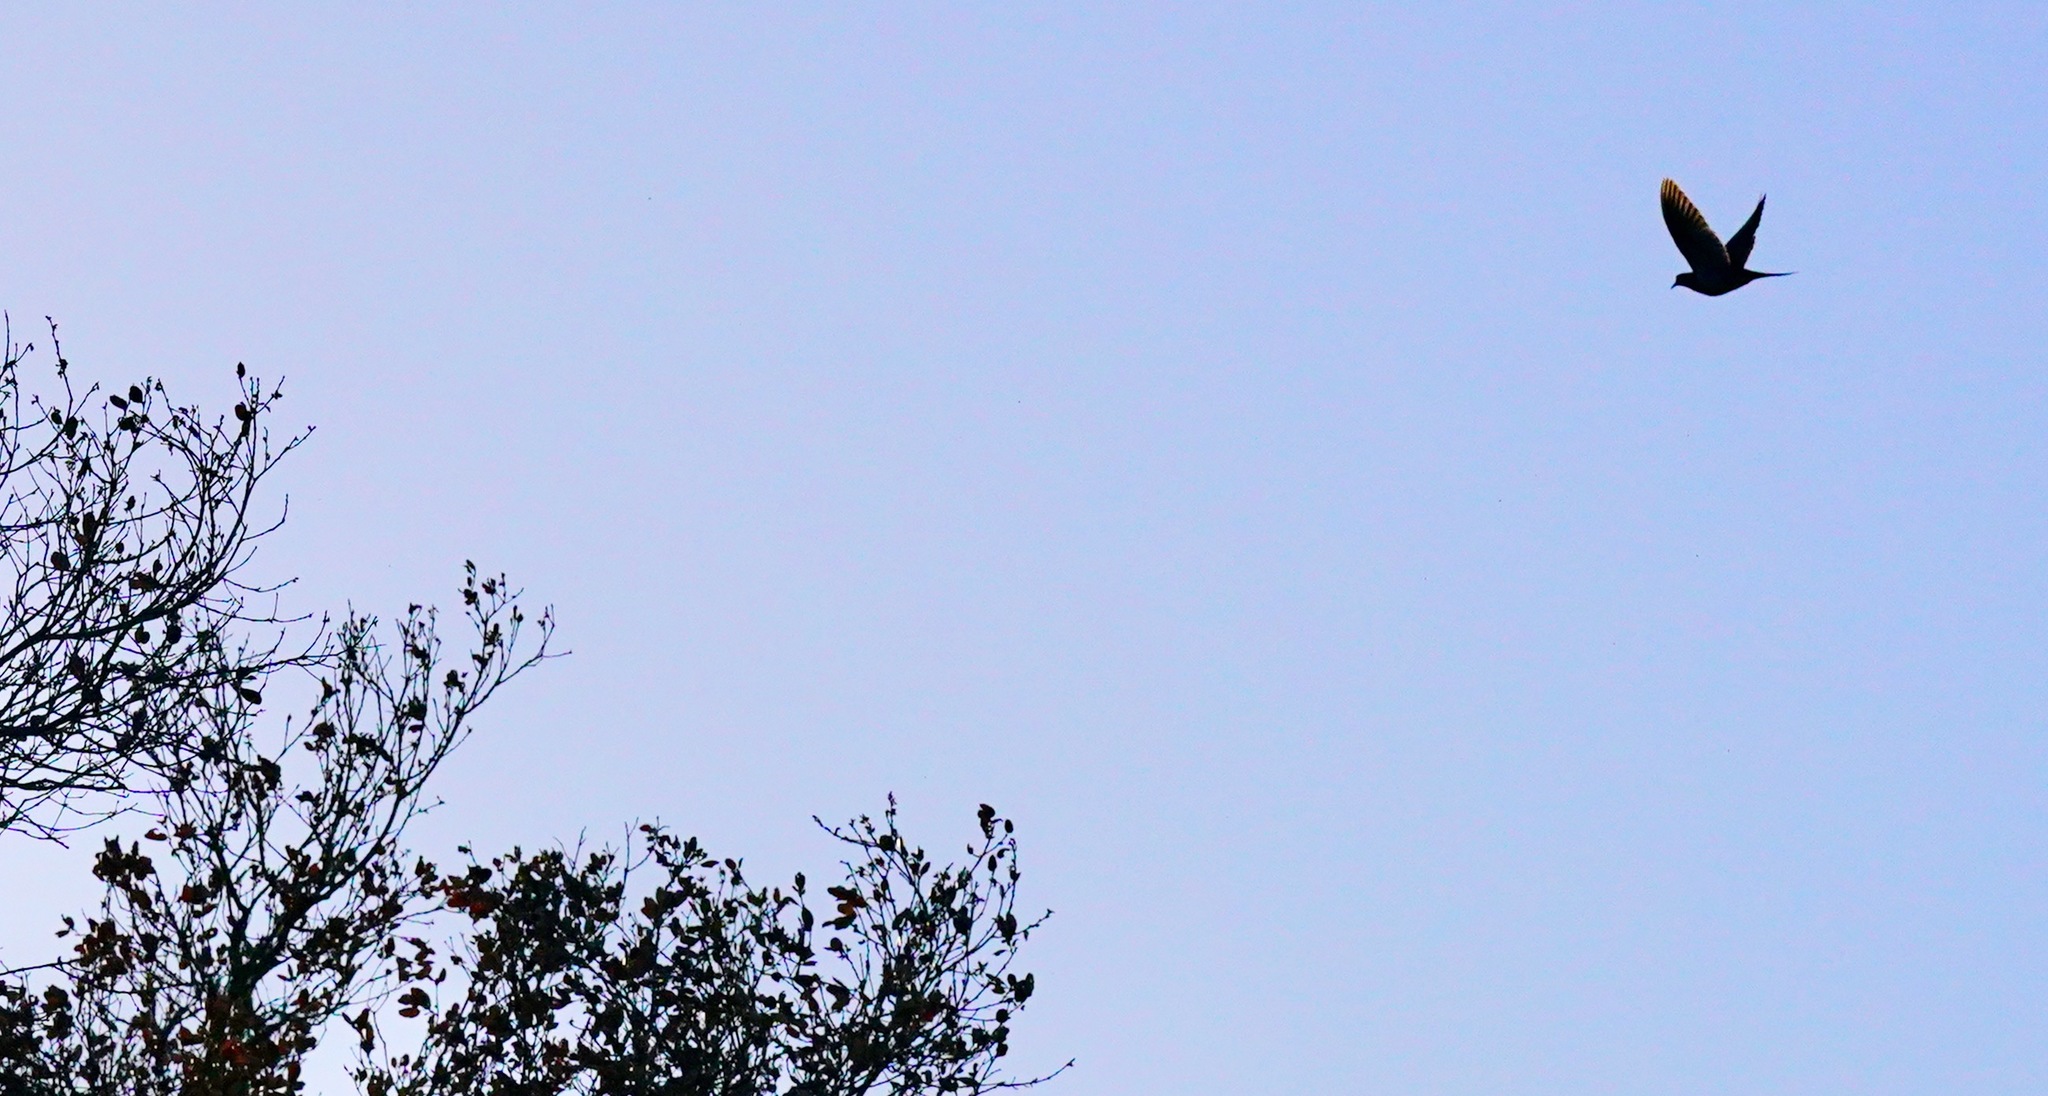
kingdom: Animalia
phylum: Chordata
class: Aves
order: Columbiformes
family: Columbidae
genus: Zenaida
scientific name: Zenaida macroura
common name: Mourning dove
